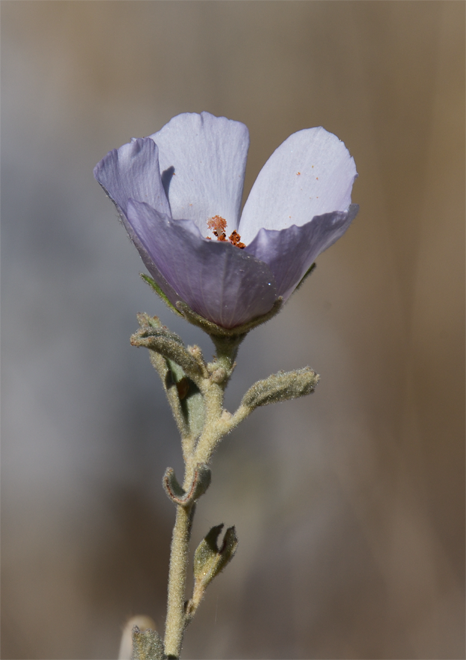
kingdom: Plantae
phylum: Tracheophyta
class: Magnoliopsida
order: Malvales
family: Malvaceae
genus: Hibiscus
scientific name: Hibiscus denudatus
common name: Paleface
